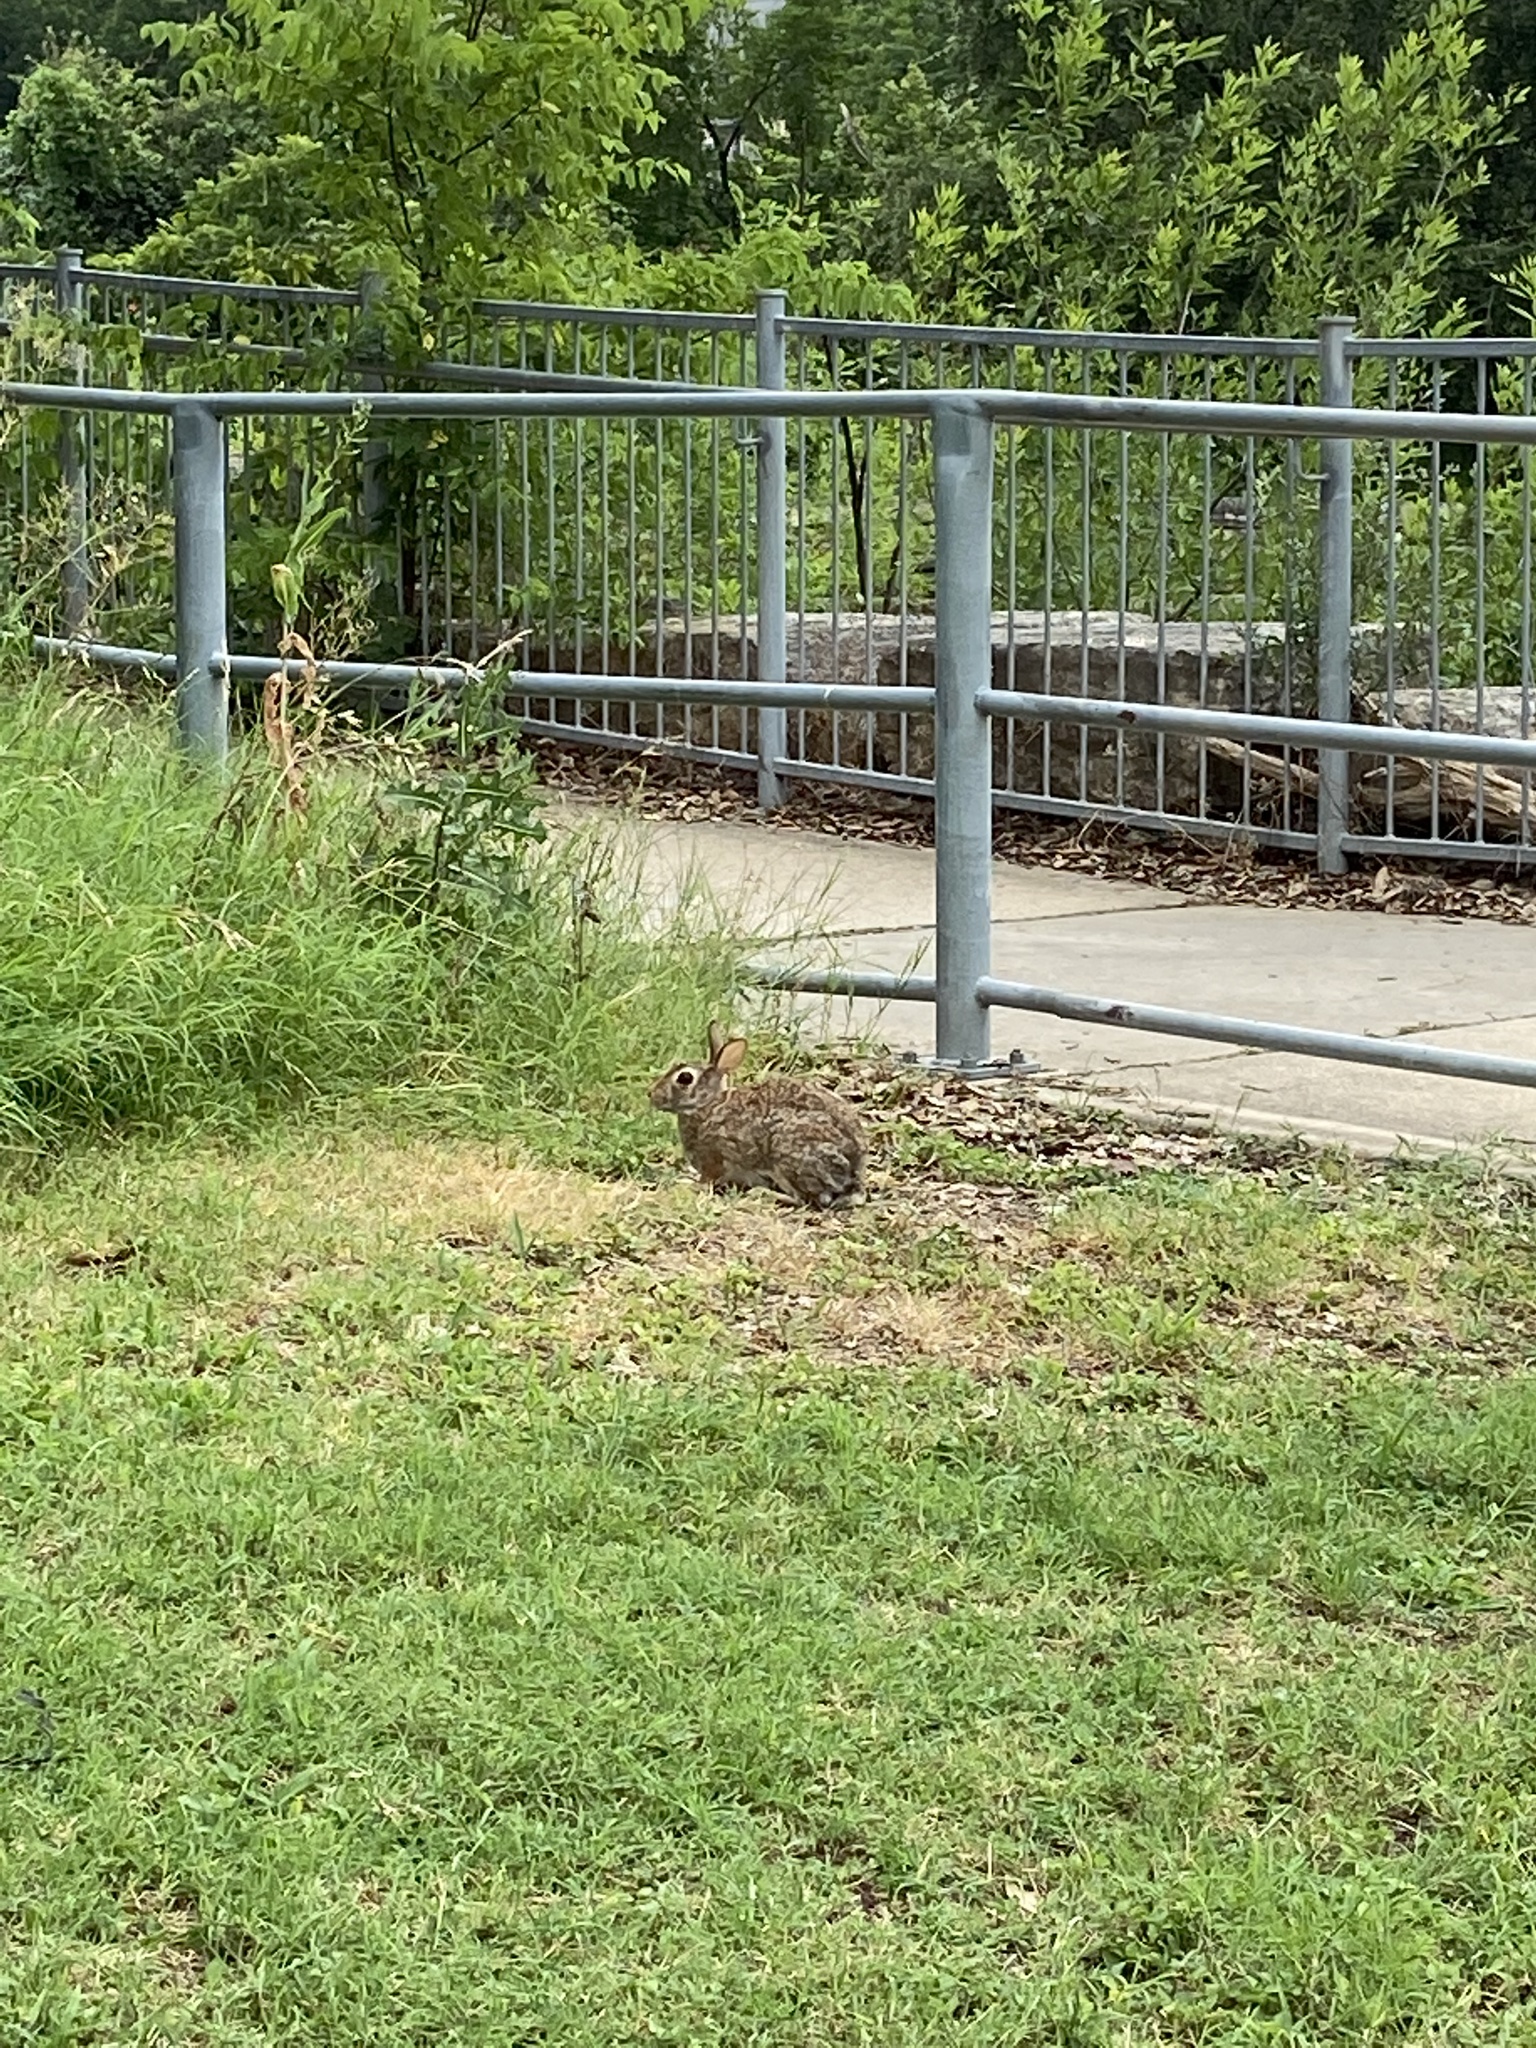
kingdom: Animalia
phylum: Chordata
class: Mammalia
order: Lagomorpha
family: Leporidae
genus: Sylvilagus
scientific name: Sylvilagus floridanus
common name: Eastern cottontail
